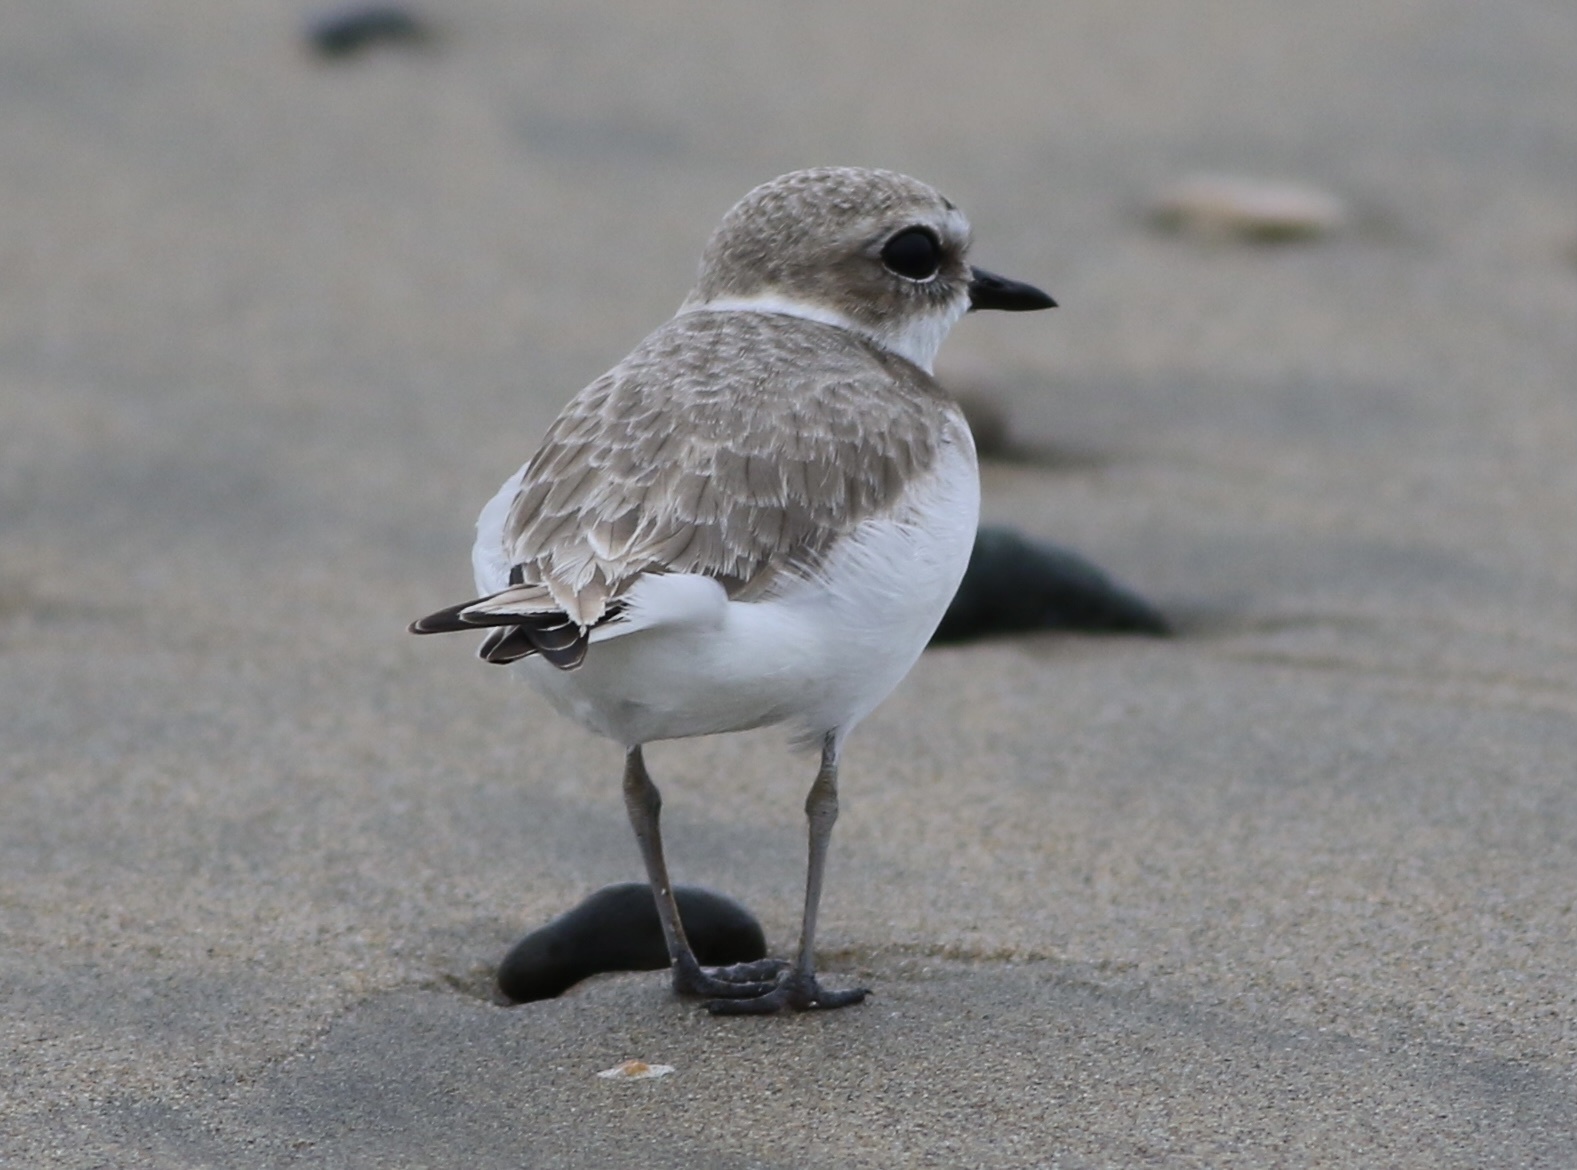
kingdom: Animalia
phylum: Chordata
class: Aves
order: Charadriiformes
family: Charadriidae
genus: Anarhynchus
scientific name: Anarhynchus
